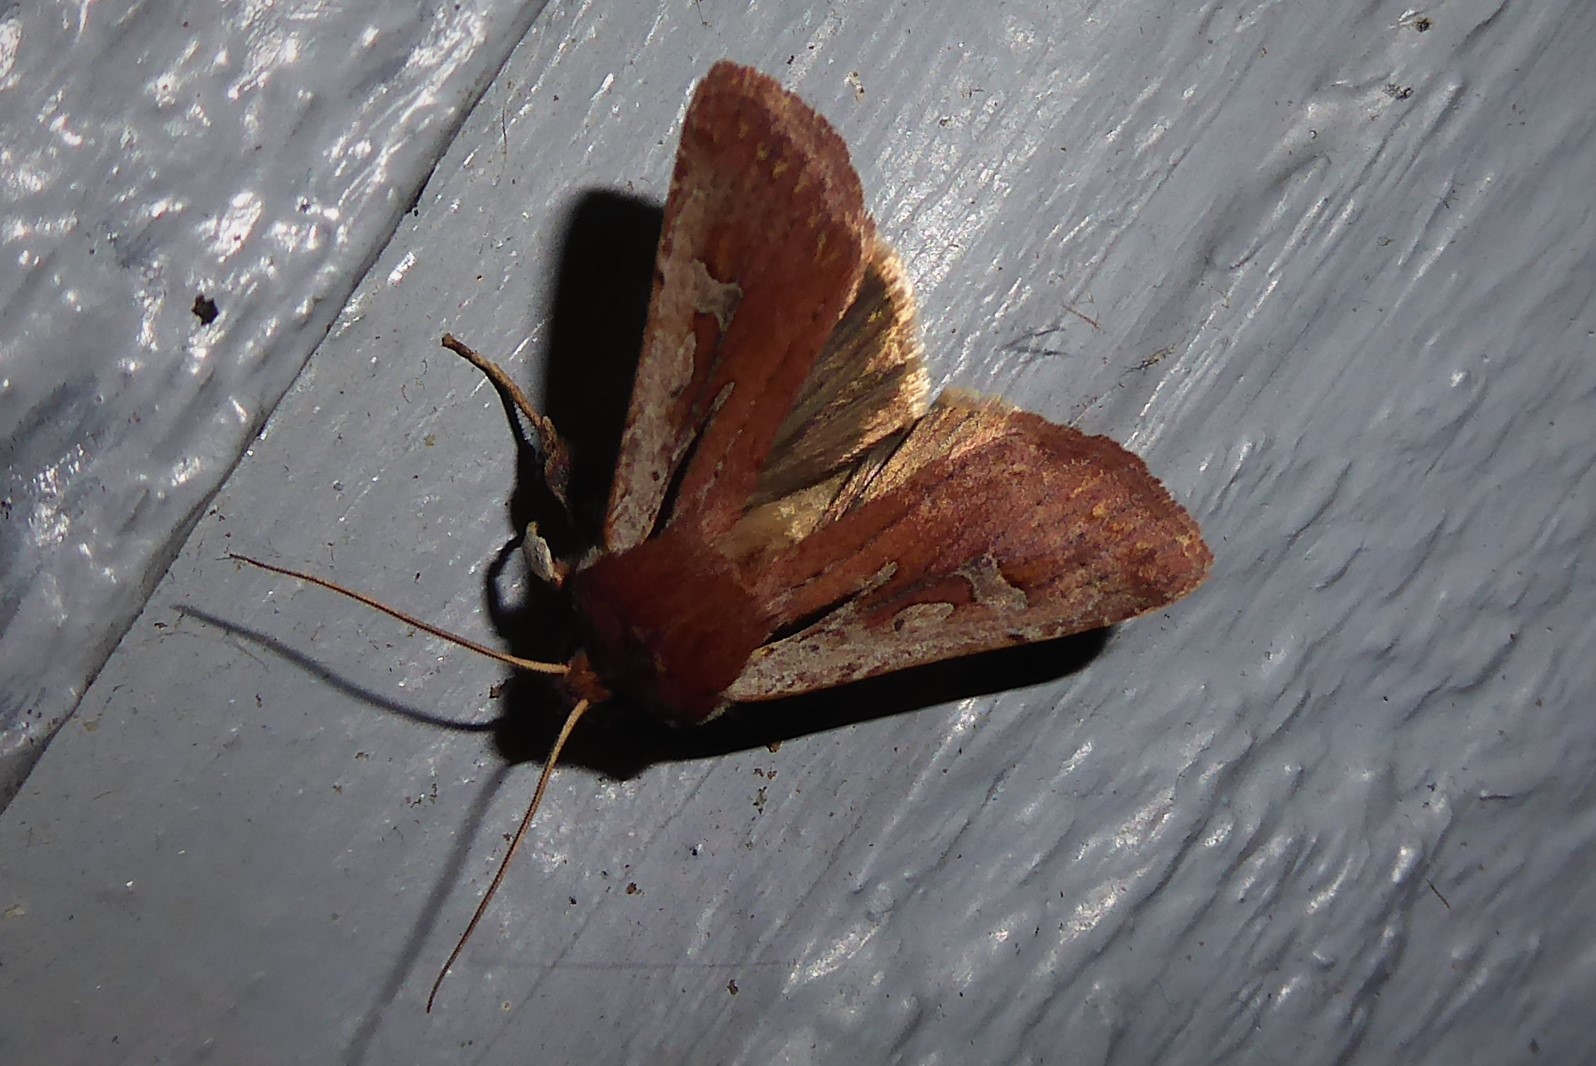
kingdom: Animalia
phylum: Arthropoda
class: Insecta
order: Lepidoptera
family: Noctuidae
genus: Ichneutica
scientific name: Ichneutica atristriga
